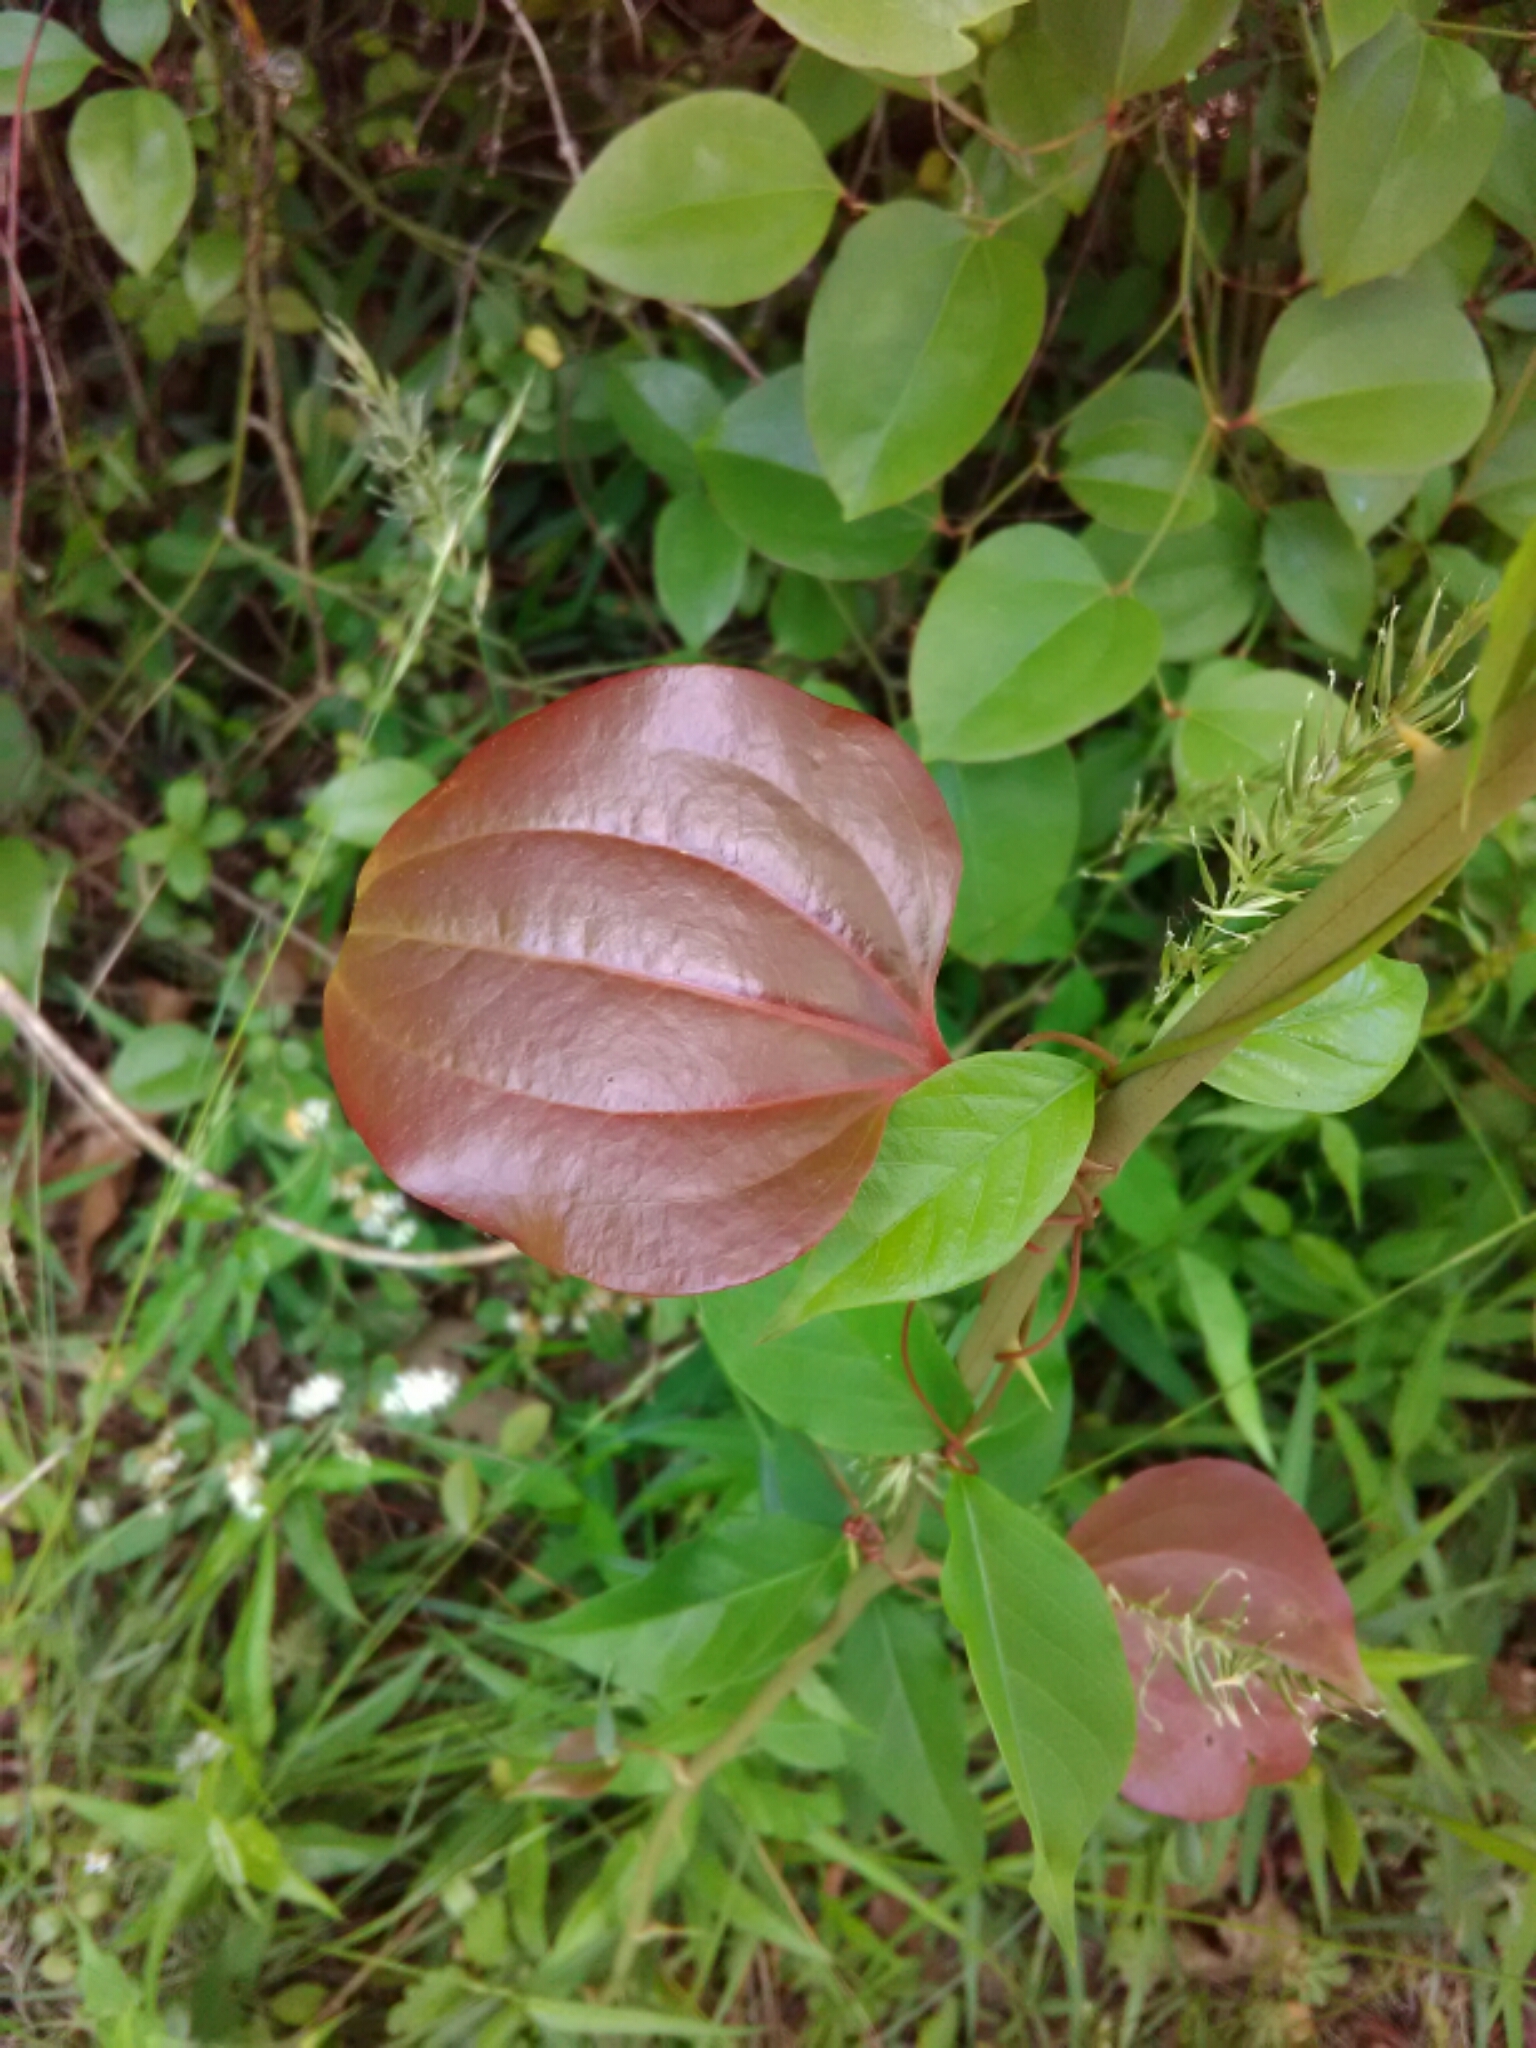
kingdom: Plantae
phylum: Tracheophyta
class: Liliopsida
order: Liliales
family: Smilacaceae
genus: Smilax
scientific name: Smilax rotundifolia
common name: Bullbriar
